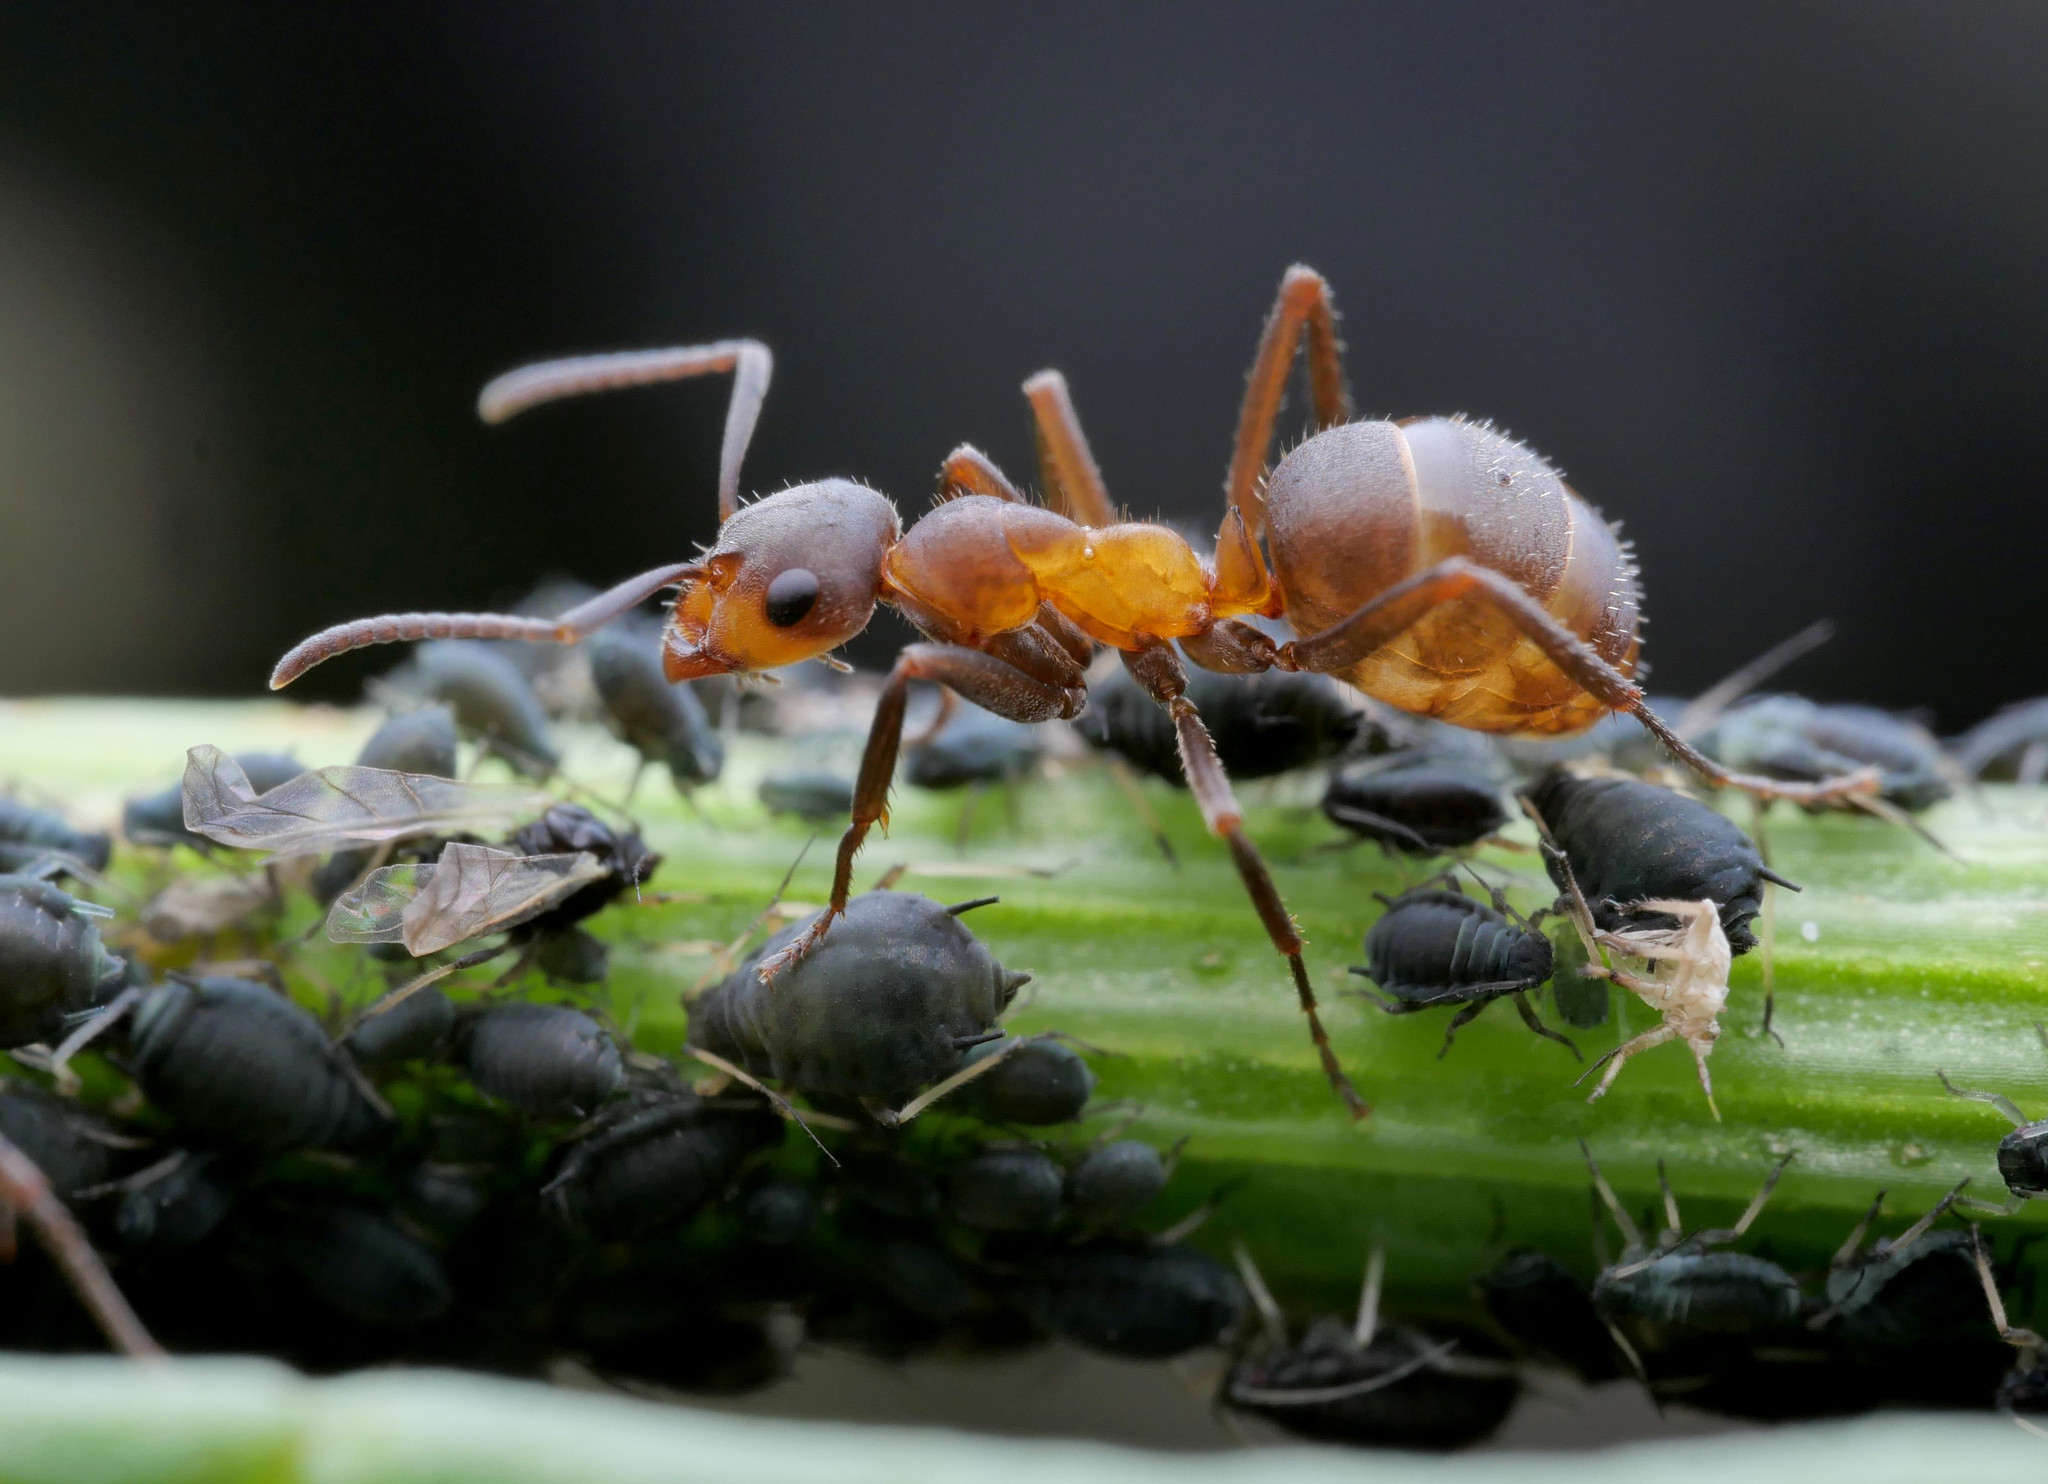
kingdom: Animalia
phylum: Arthropoda
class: Insecta
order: Hymenoptera
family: Formicidae
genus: Formica
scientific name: Formica pratensis
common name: European red wood ant
